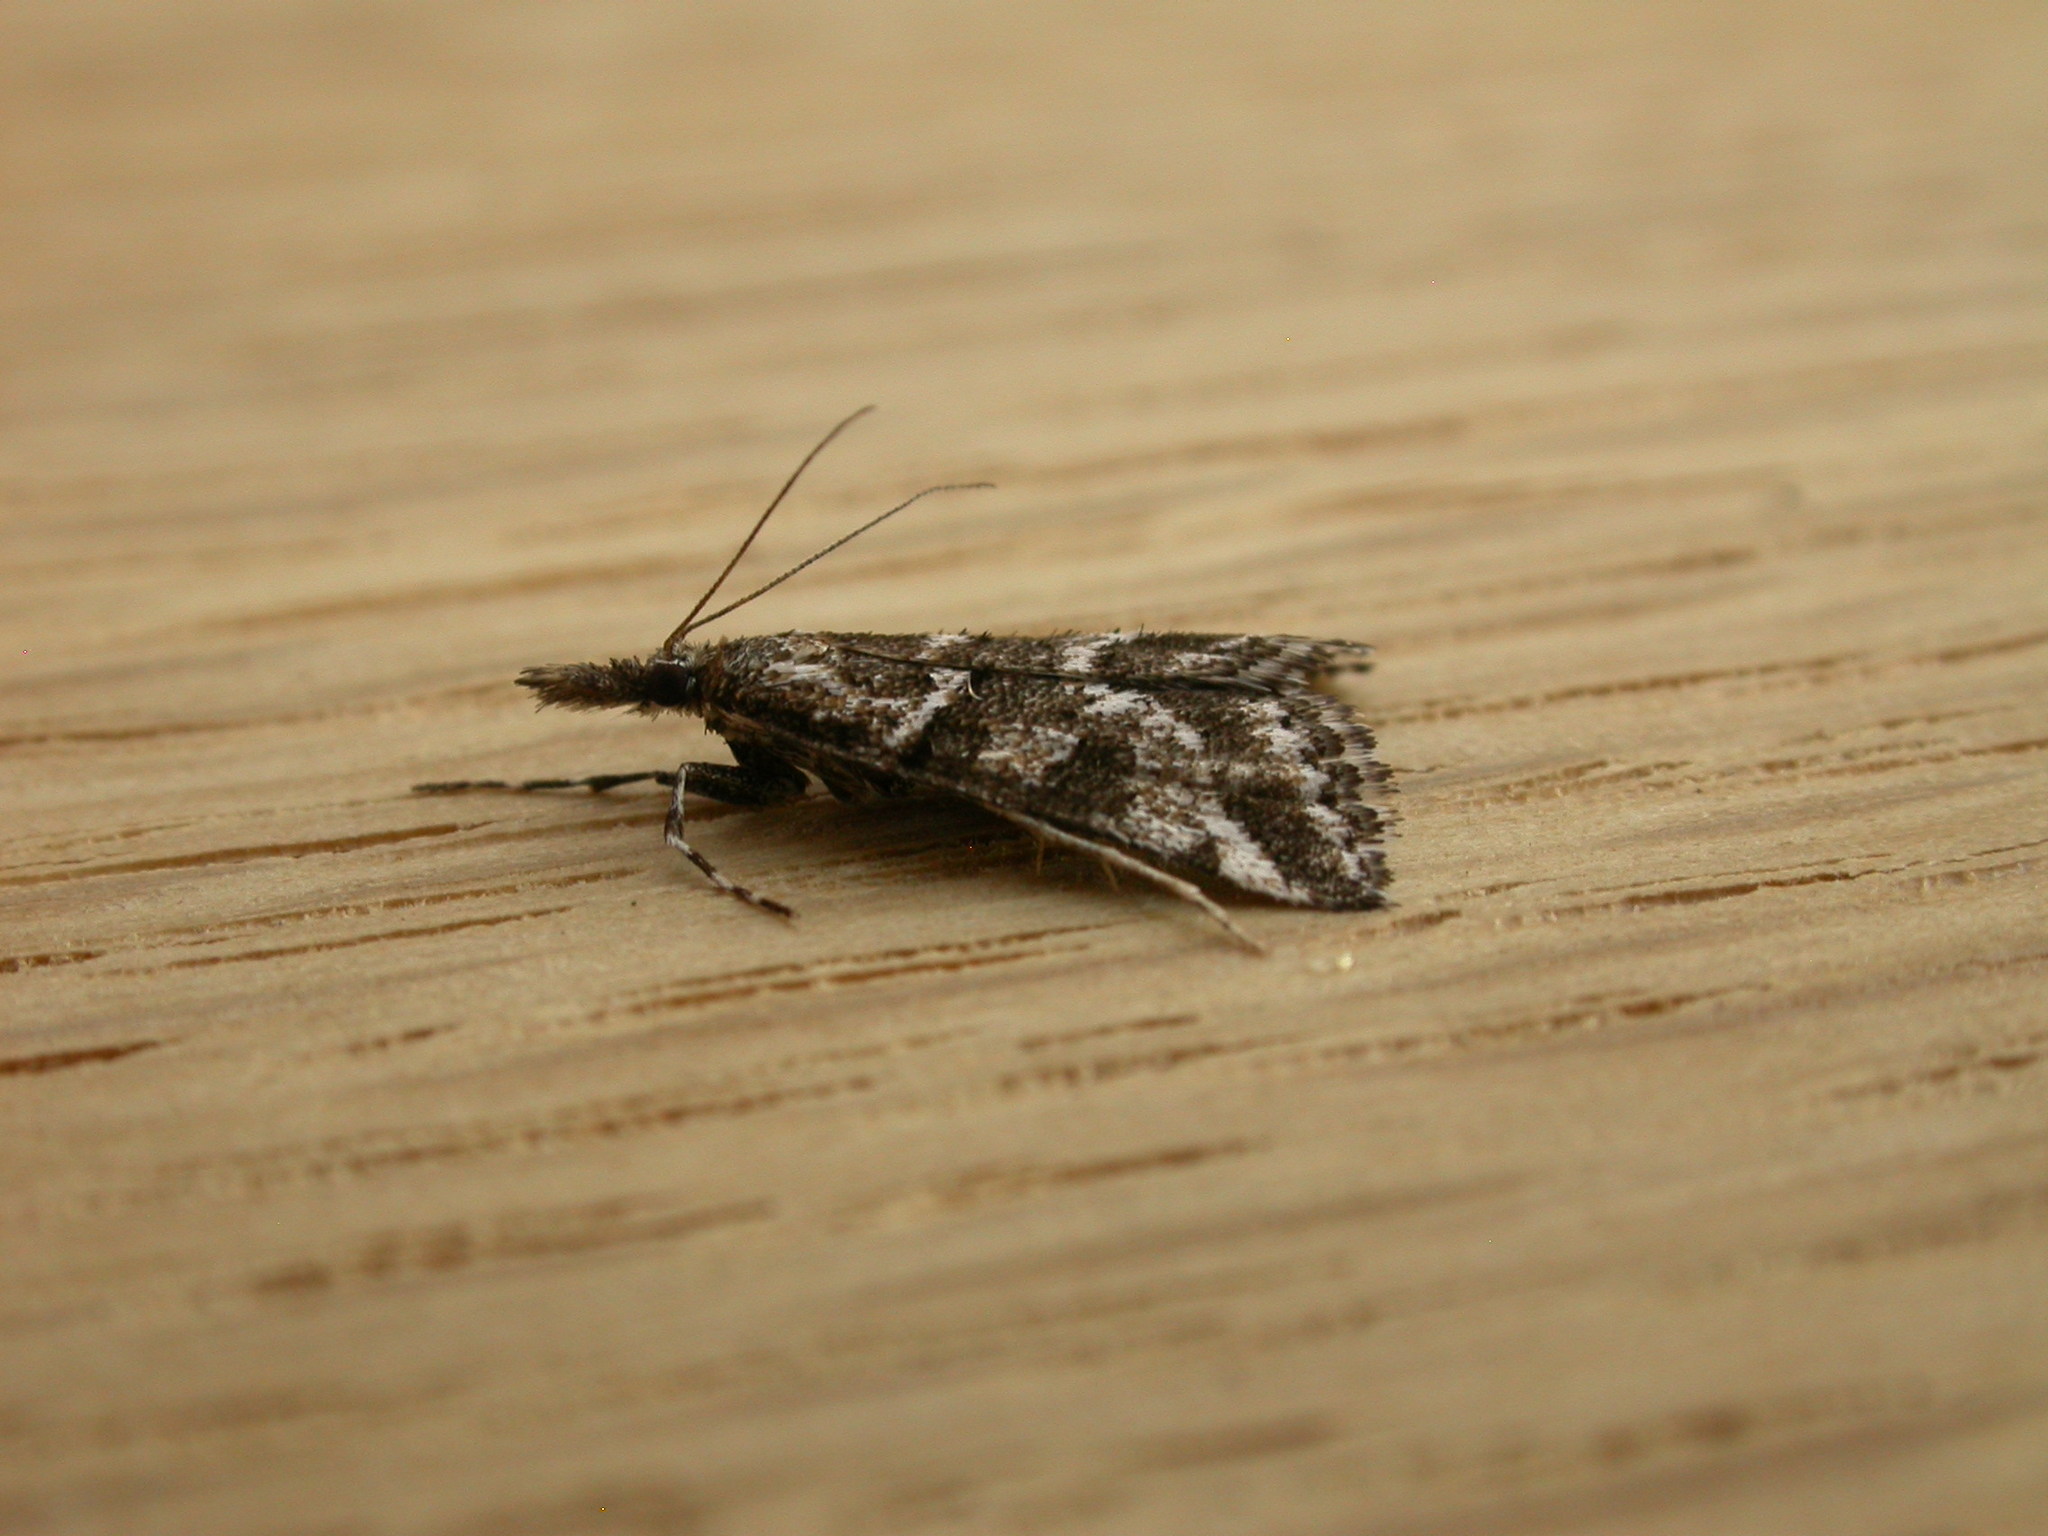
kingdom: Animalia
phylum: Arthropoda
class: Insecta
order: Lepidoptera
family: Crambidae
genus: Phanomorpha
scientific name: Phanomorpha dapsilis
